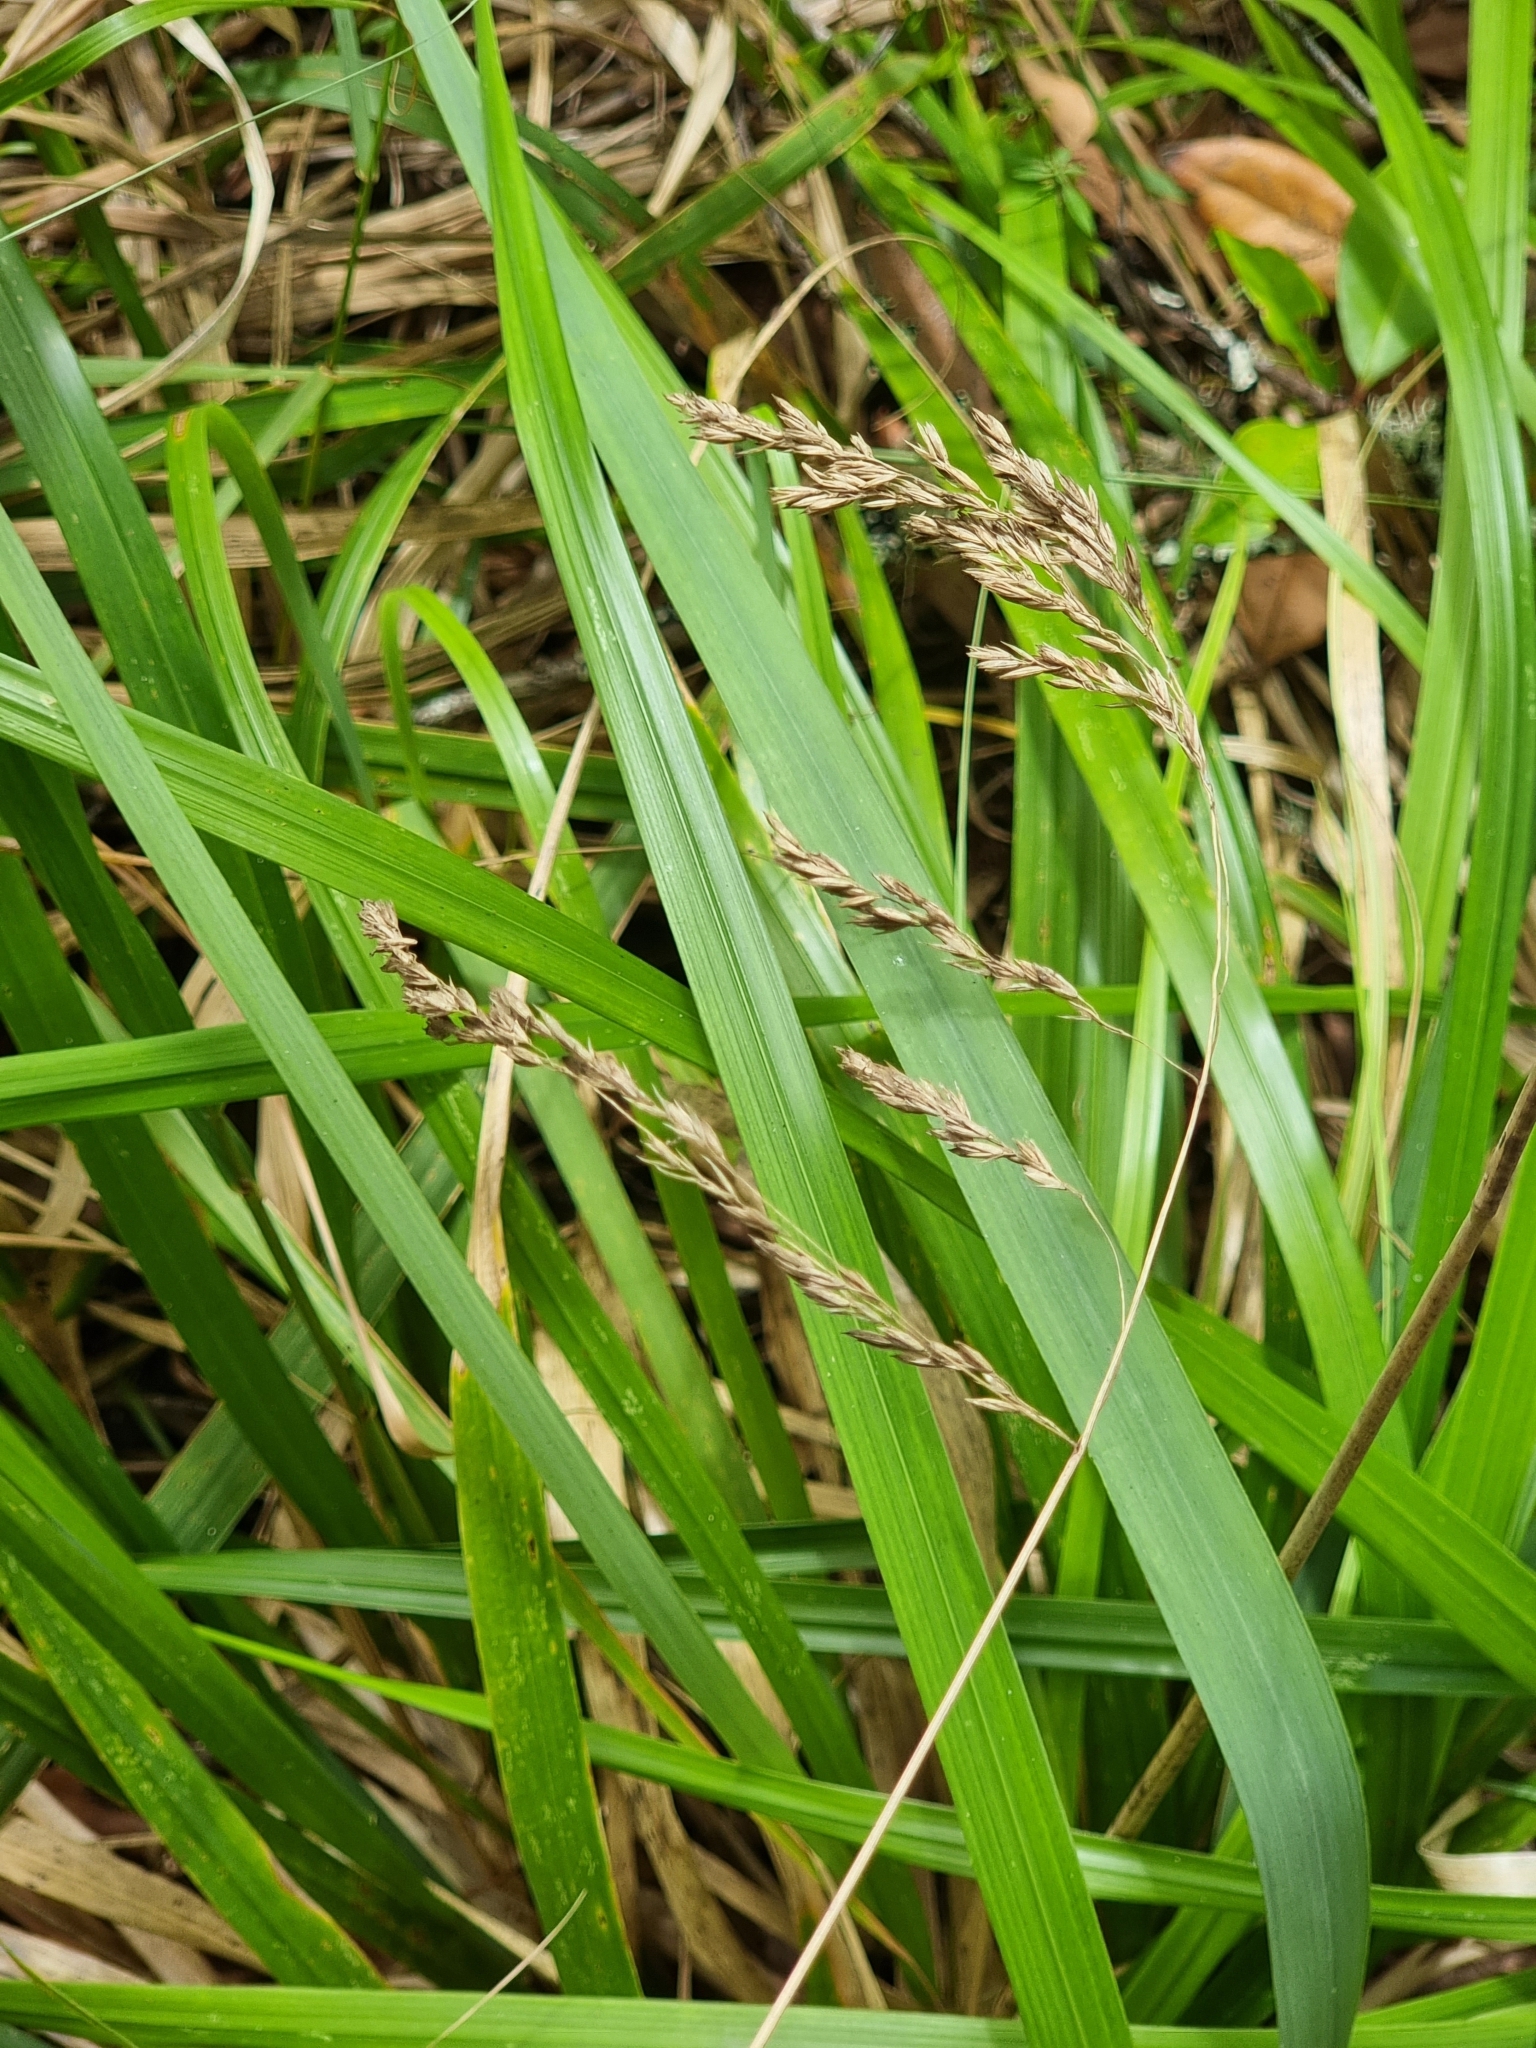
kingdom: Plantae
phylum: Tracheophyta
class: Liliopsida
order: Poales
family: Poaceae
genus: Festuca
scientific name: Festuca donax
